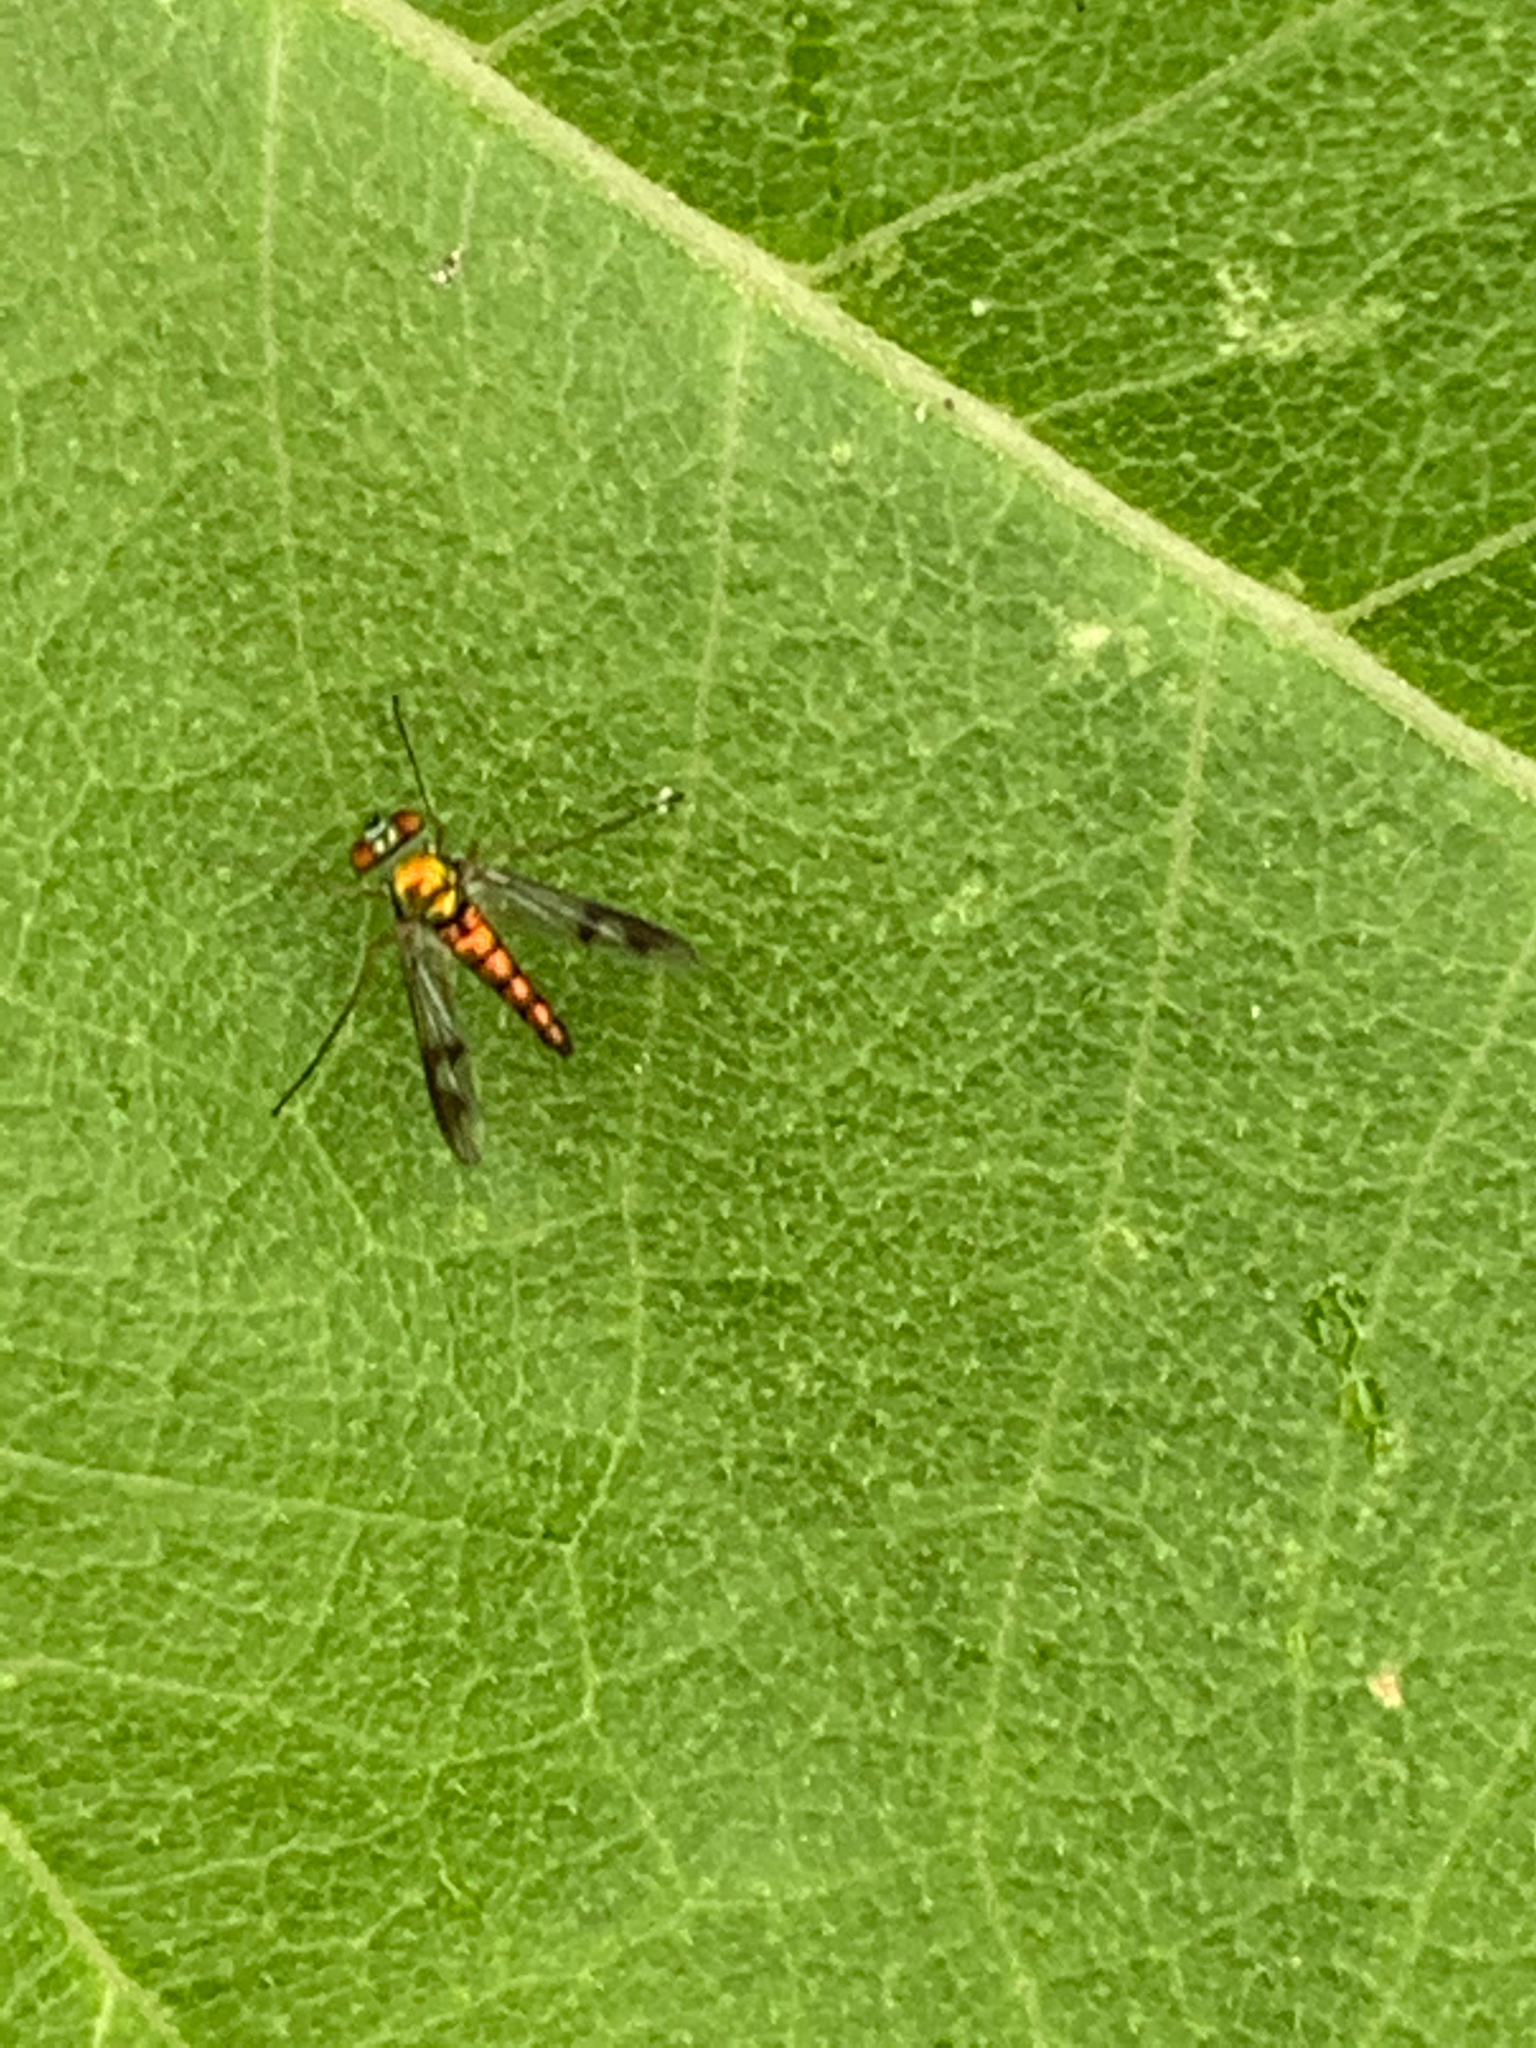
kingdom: Animalia
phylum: Arthropoda
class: Insecta
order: Diptera
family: Dolichopodidae
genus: Condylostylus
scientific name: Condylostylus
